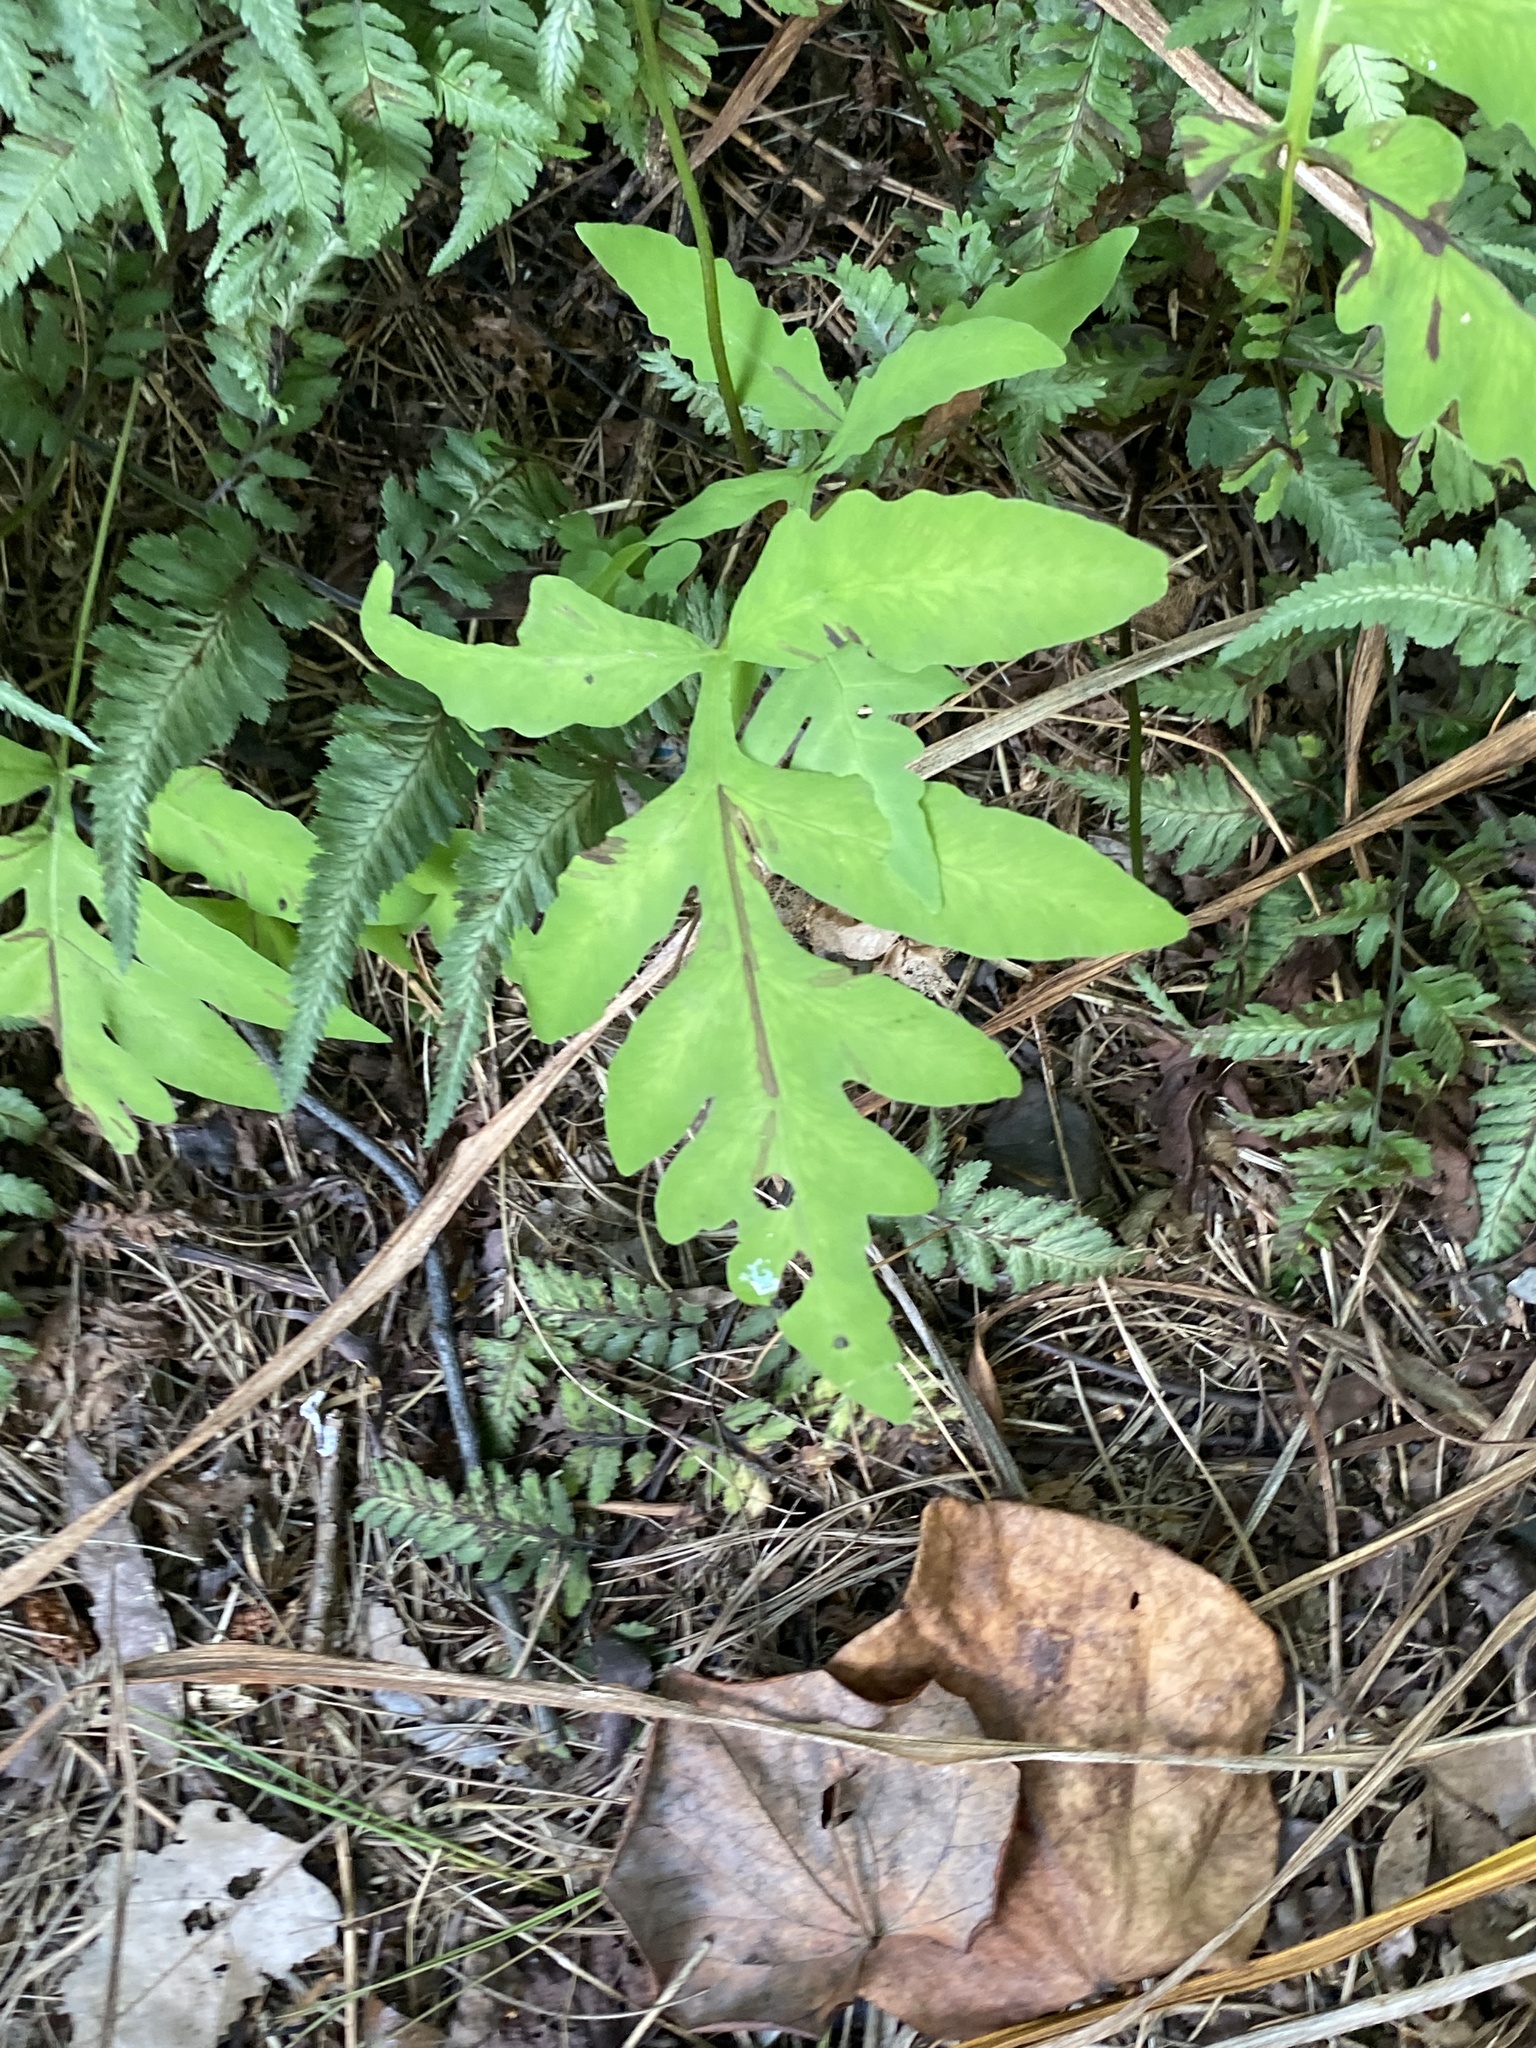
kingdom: Plantae
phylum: Tracheophyta
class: Polypodiopsida
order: Polypodiales
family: Onocleaceae
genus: Onoclea
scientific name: Onoclea sensibilis
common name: Sensitive fern
